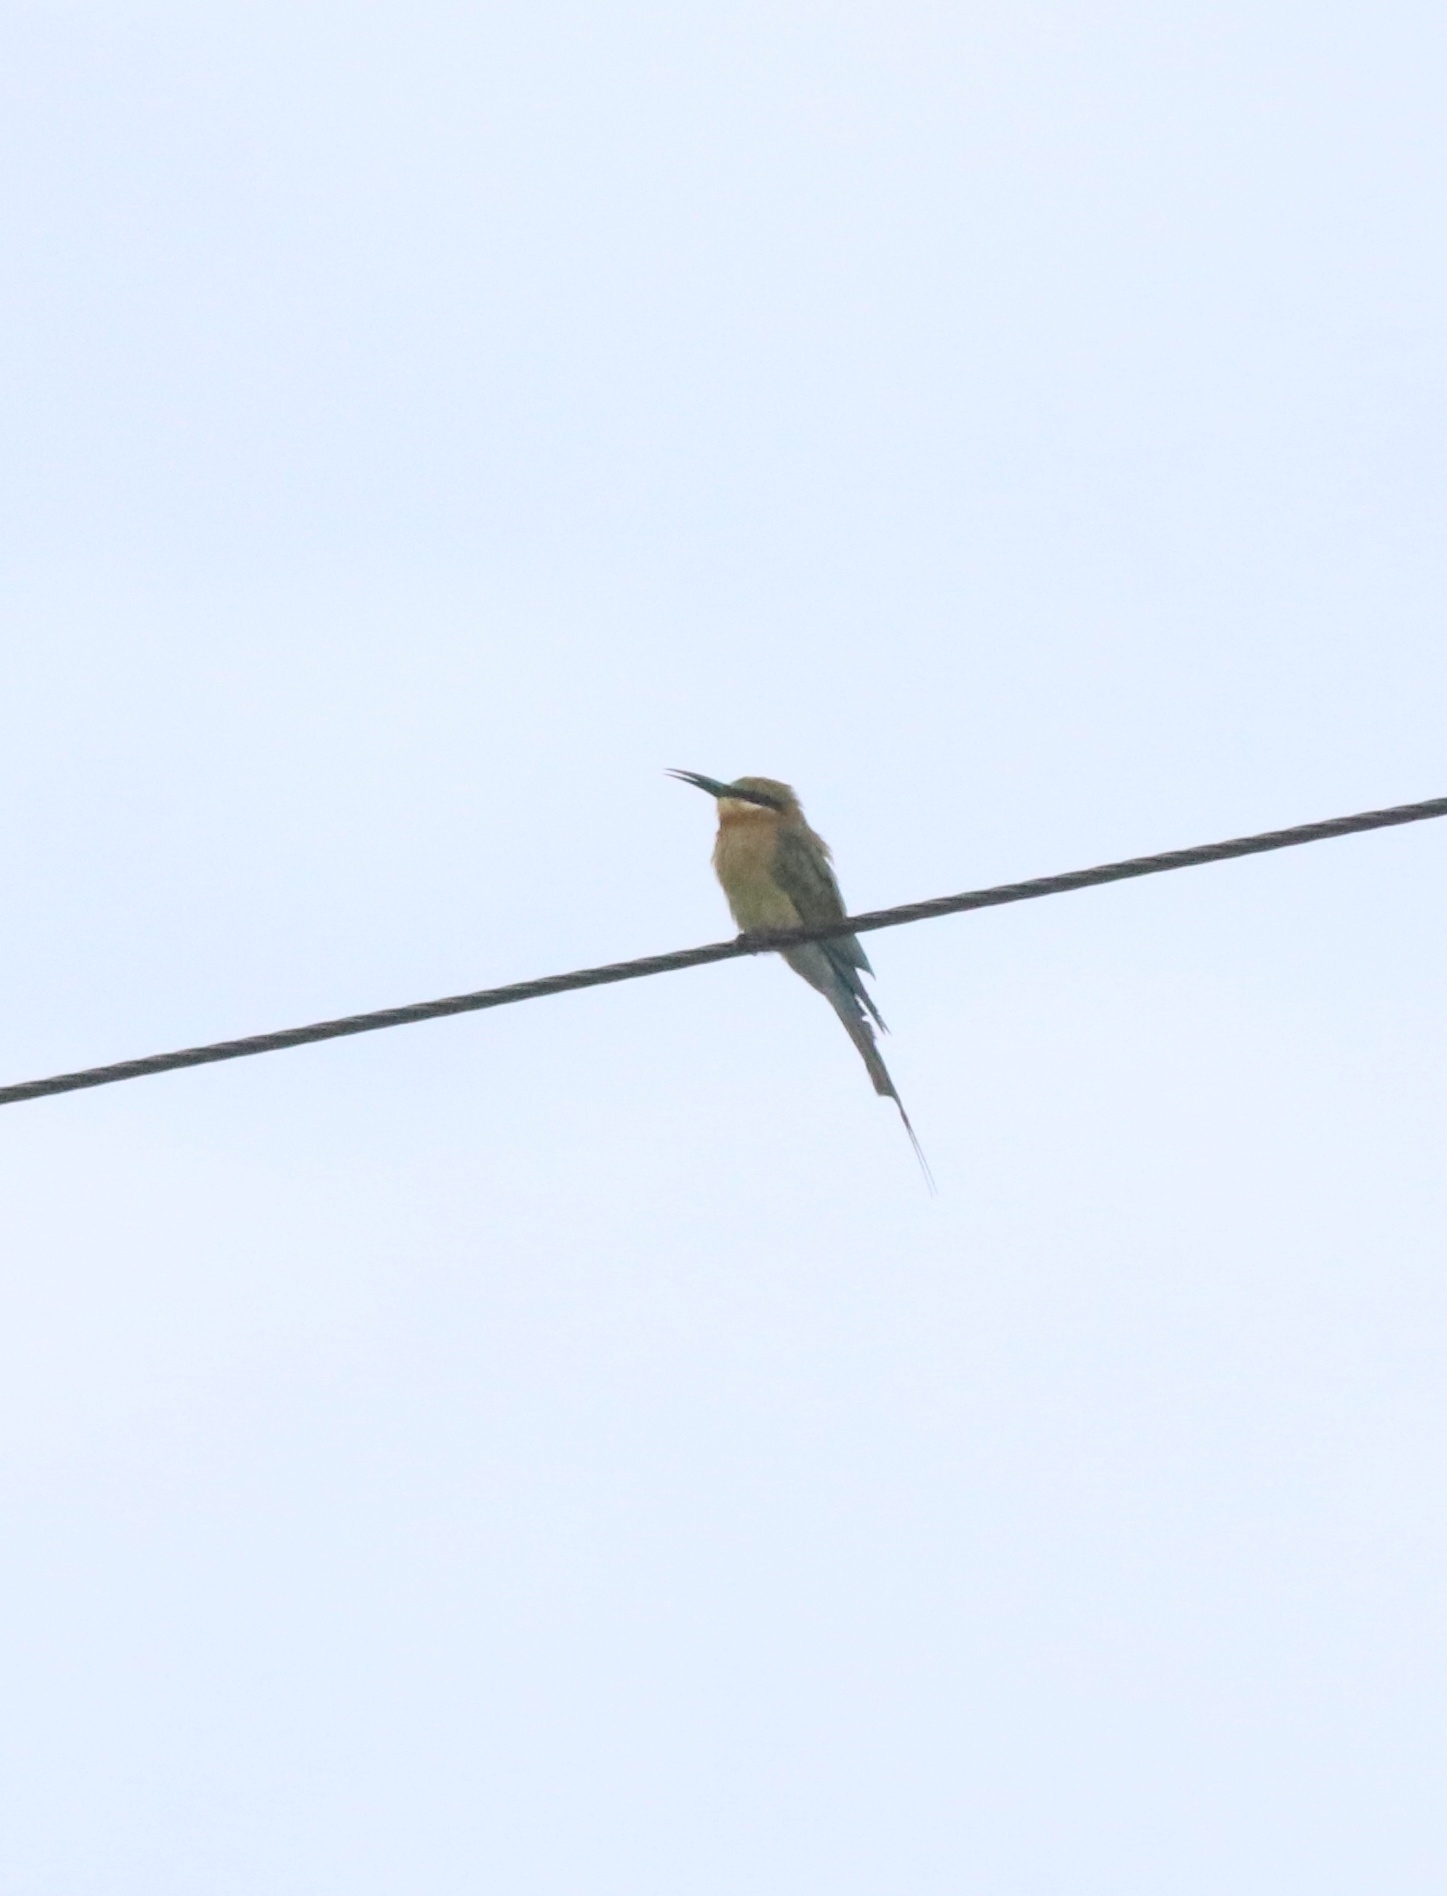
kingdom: Animalia
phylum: Chordata
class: Aves
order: Coraciiformes
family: Meropidae
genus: Merops
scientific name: Merops philippinus
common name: Blue-tailed bee-eater
